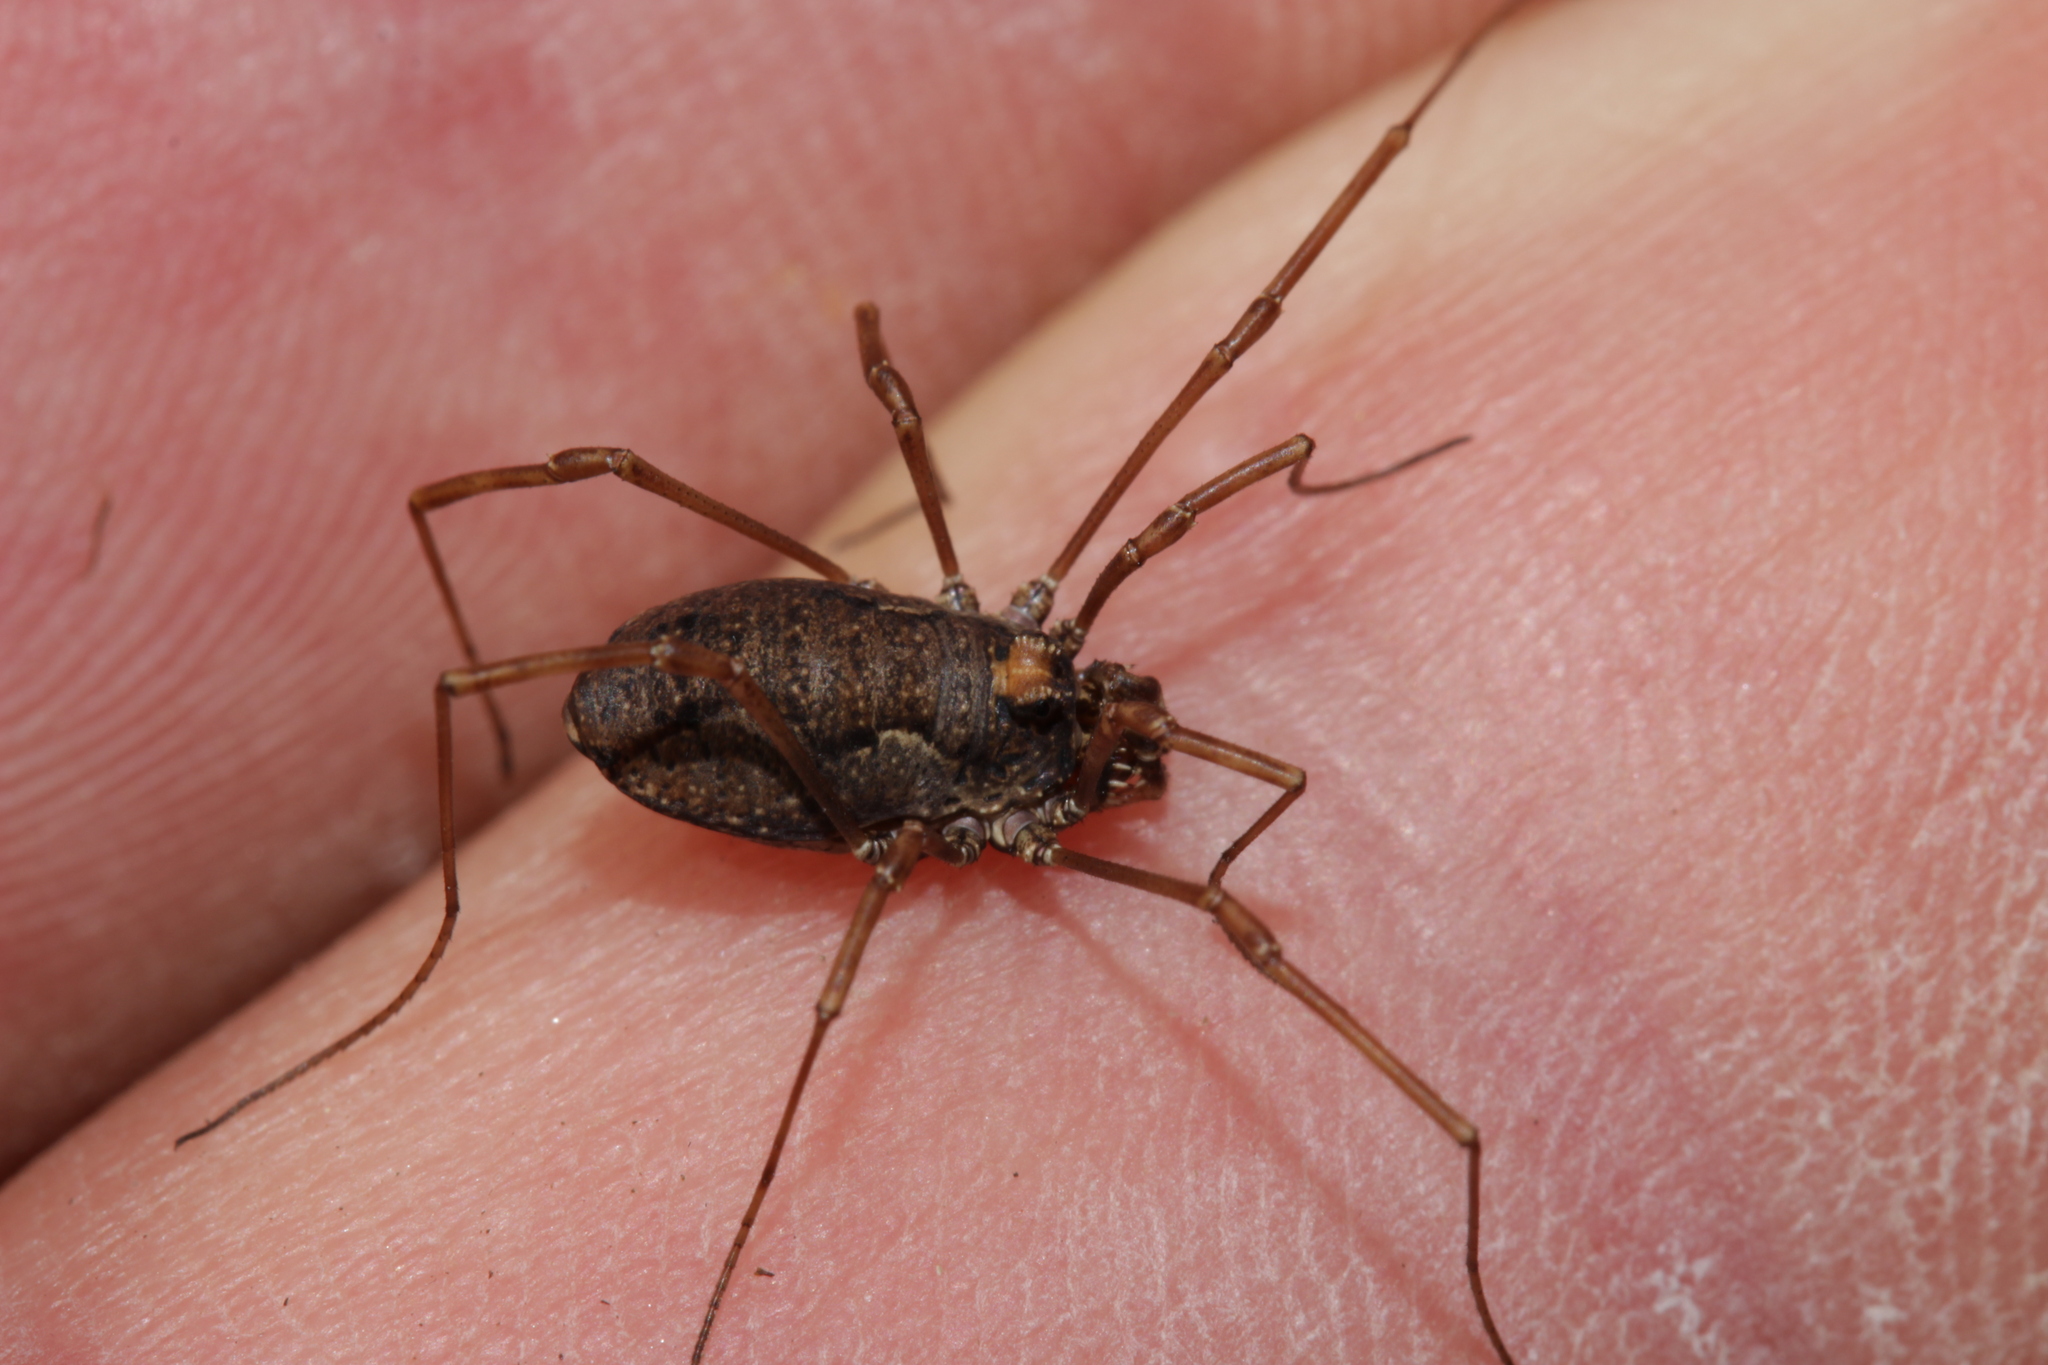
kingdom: Animalia
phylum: Arthropoda
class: Arachnida
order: Opiliones
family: Phalangiidae
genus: Platybunus
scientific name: Platybunus bucephalus
